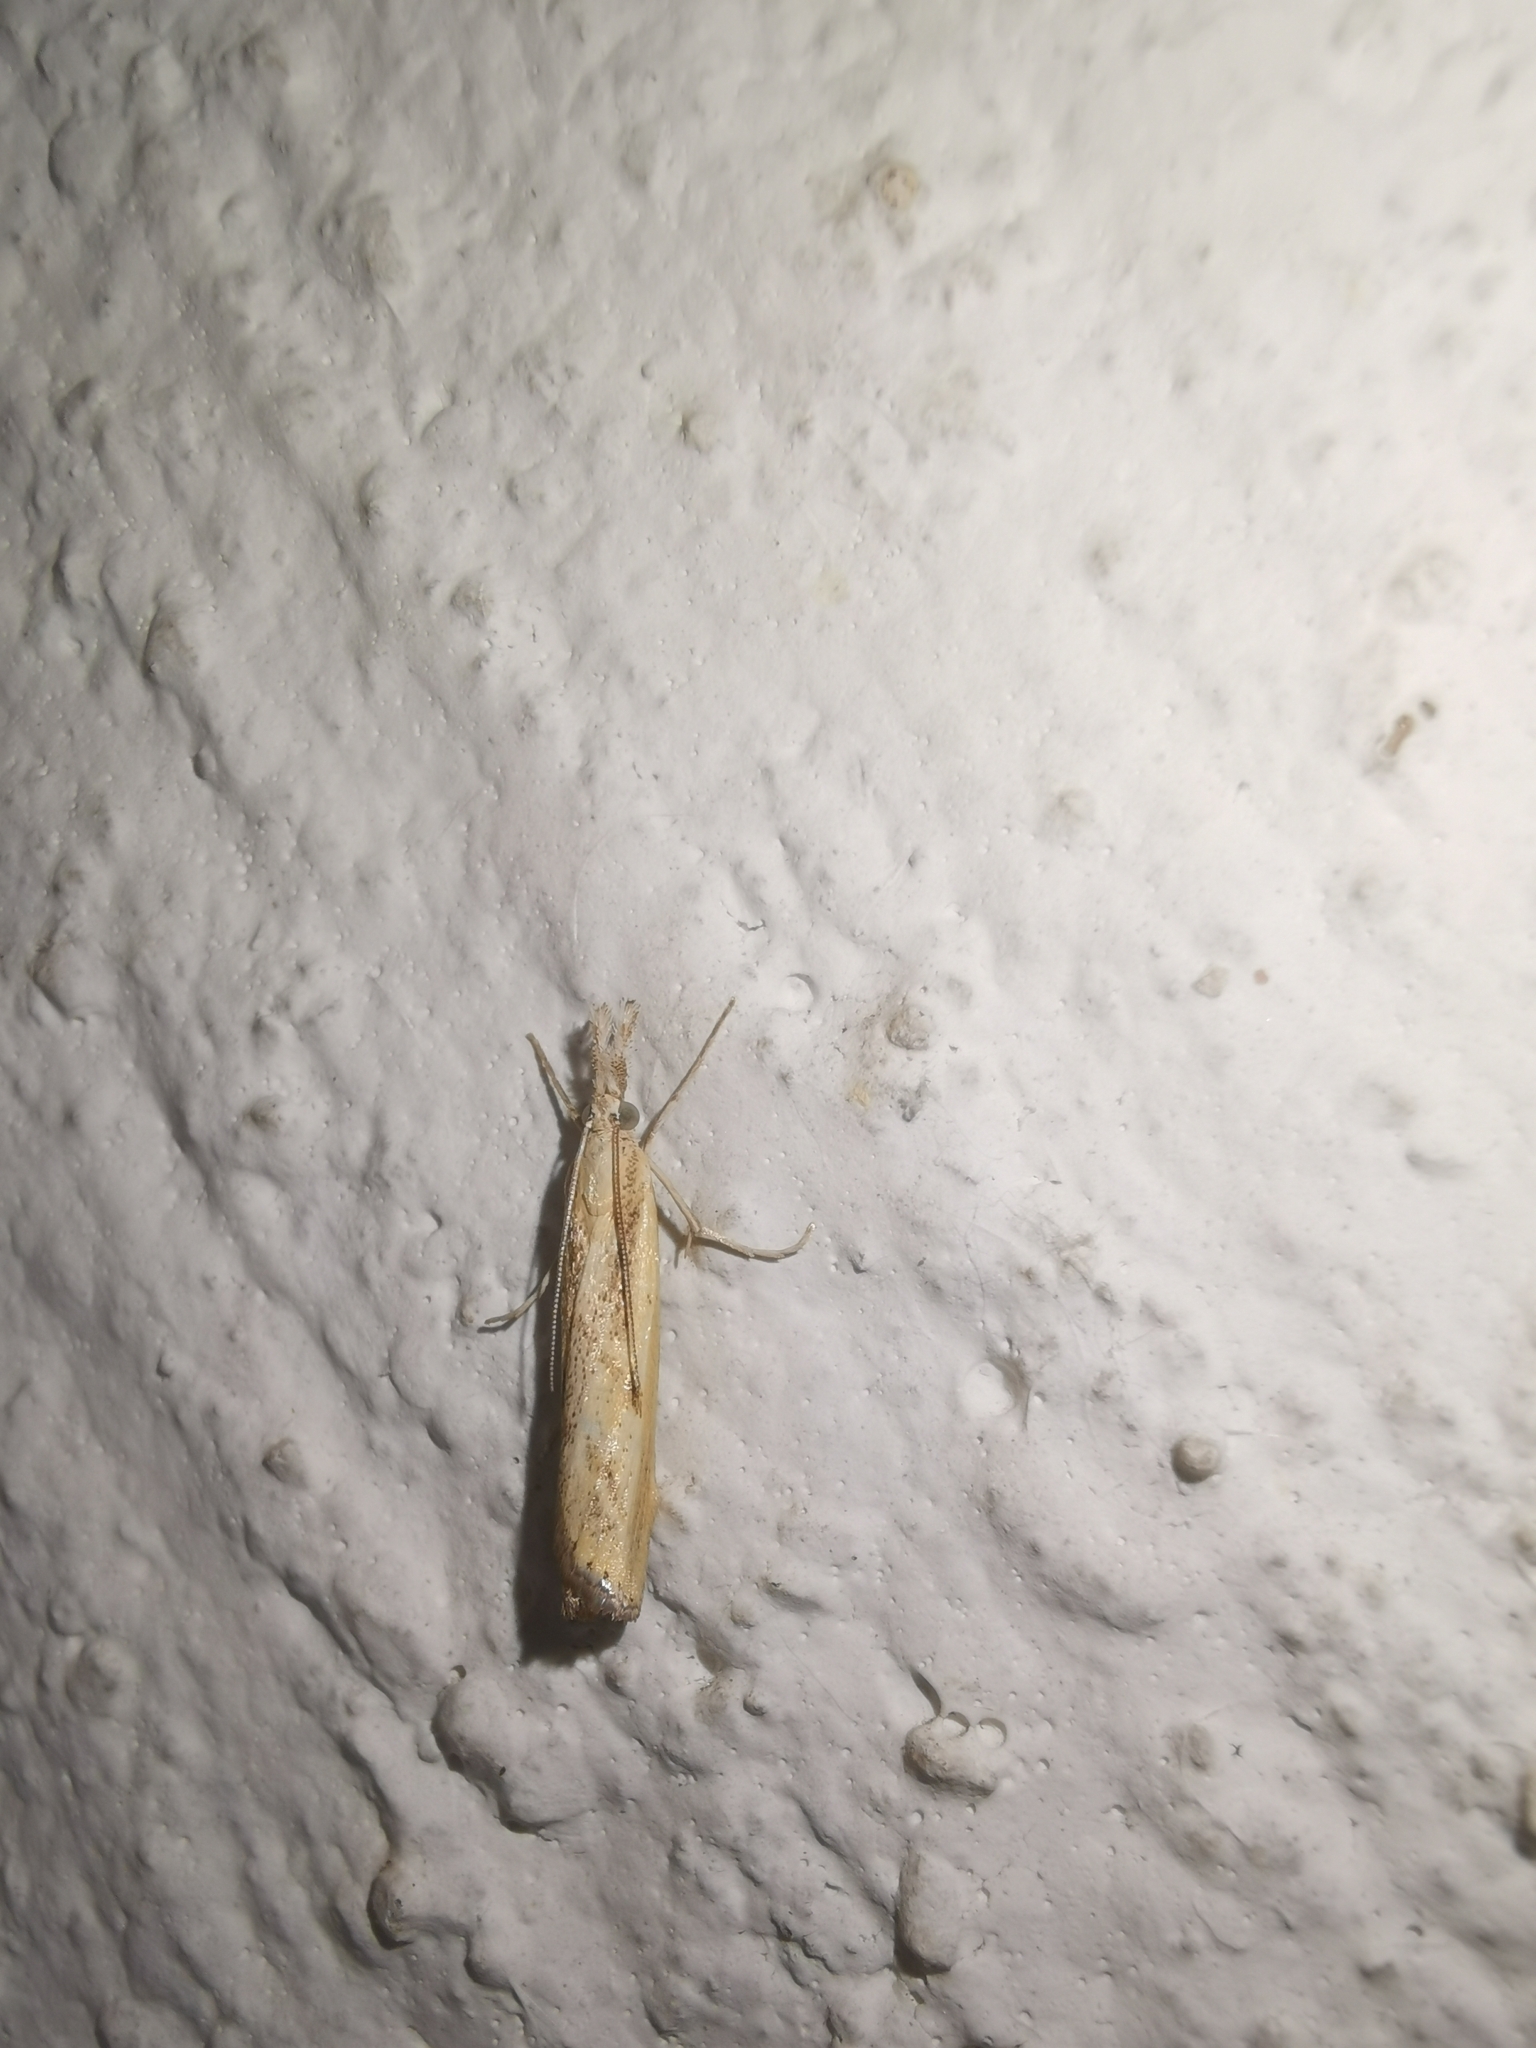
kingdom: Animalia
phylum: Arthropoda
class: Insecta
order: Lepidoptera
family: Crambidae
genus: Agriphila
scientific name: Agriphila inquinatella
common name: Barred grass-veneer
